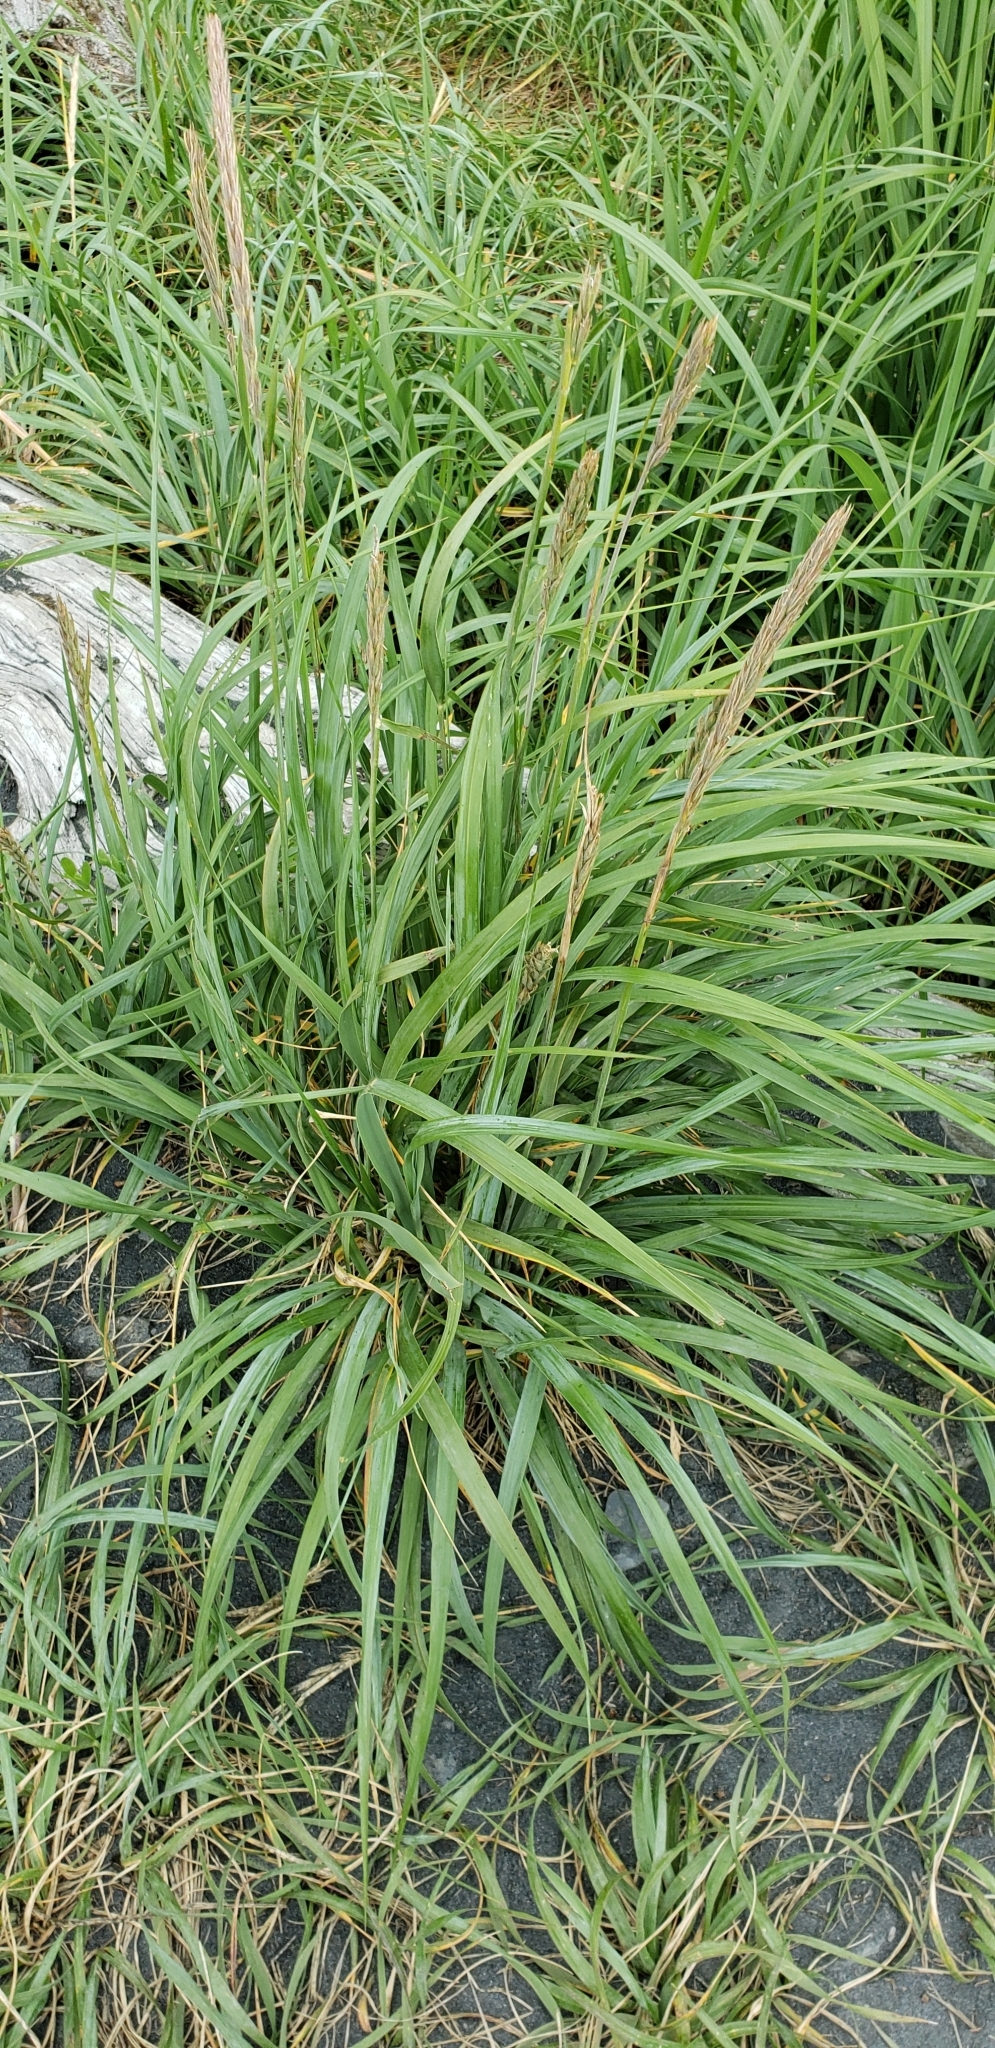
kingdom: Plantae
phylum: Tracheophyta
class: Liliopsida
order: Poales
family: Poaceae
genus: Leymus
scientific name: Leymus mollis
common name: American dune grass
